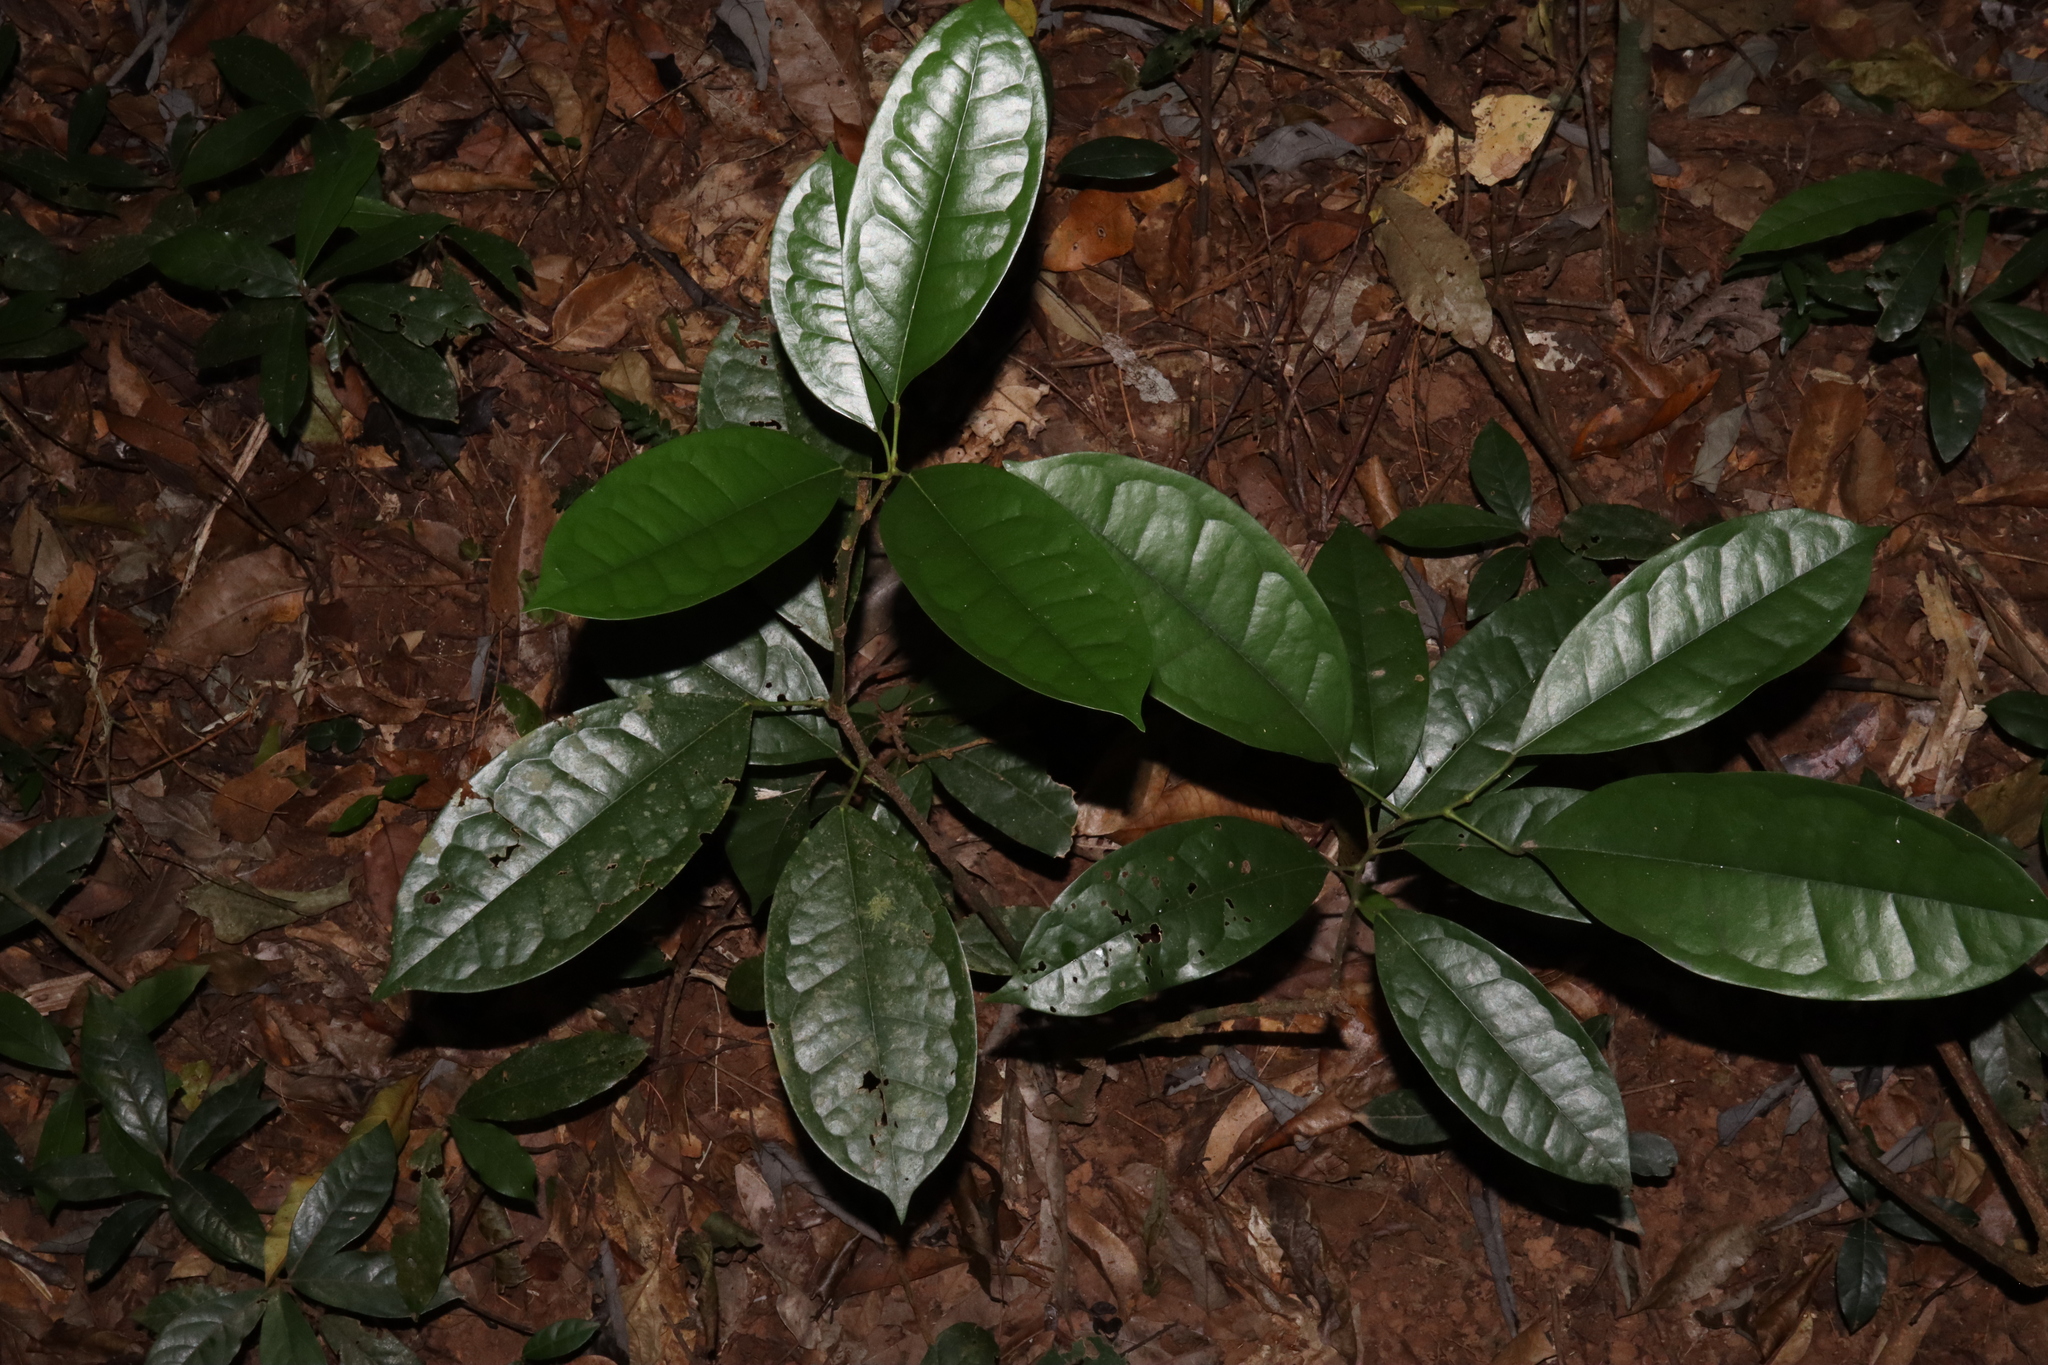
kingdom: Plantae
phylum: Tracheophyta
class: Magnoliopsida
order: Ranunculales
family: Menispermaceae
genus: Pycnarrhena
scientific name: Pycnarrhena novoguineensis
